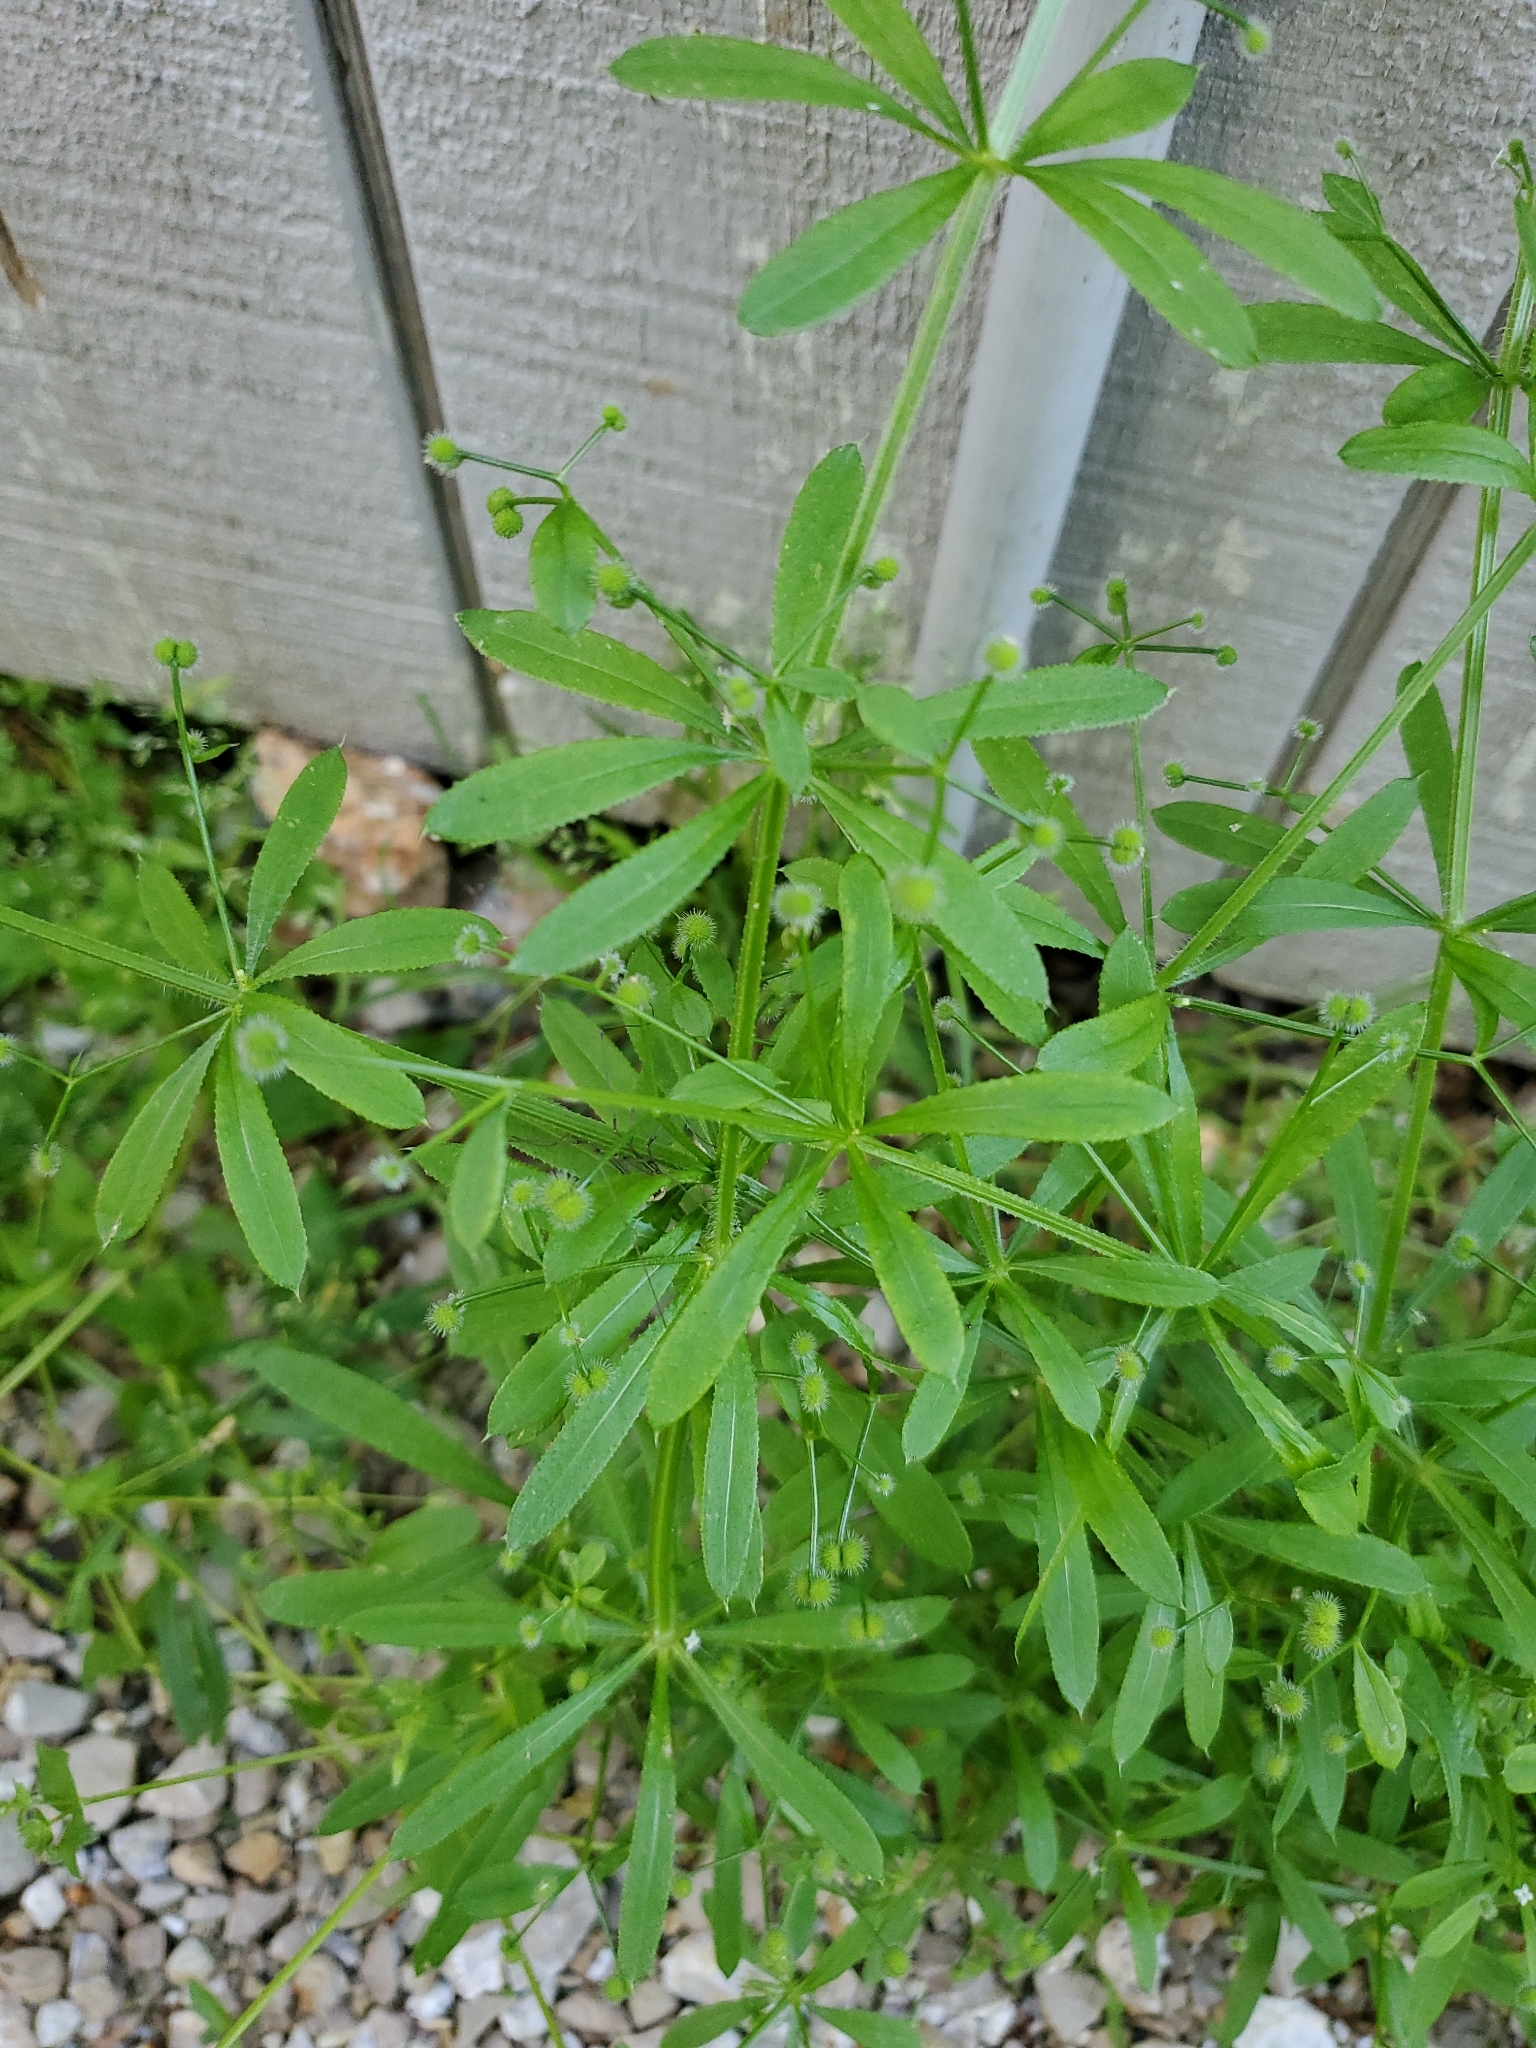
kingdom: Plantae
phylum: Tracheophyta
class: Magnoliopsida
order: Gentianales
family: Rubiaceae
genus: Galium
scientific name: Galium aparine
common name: Cleavers
